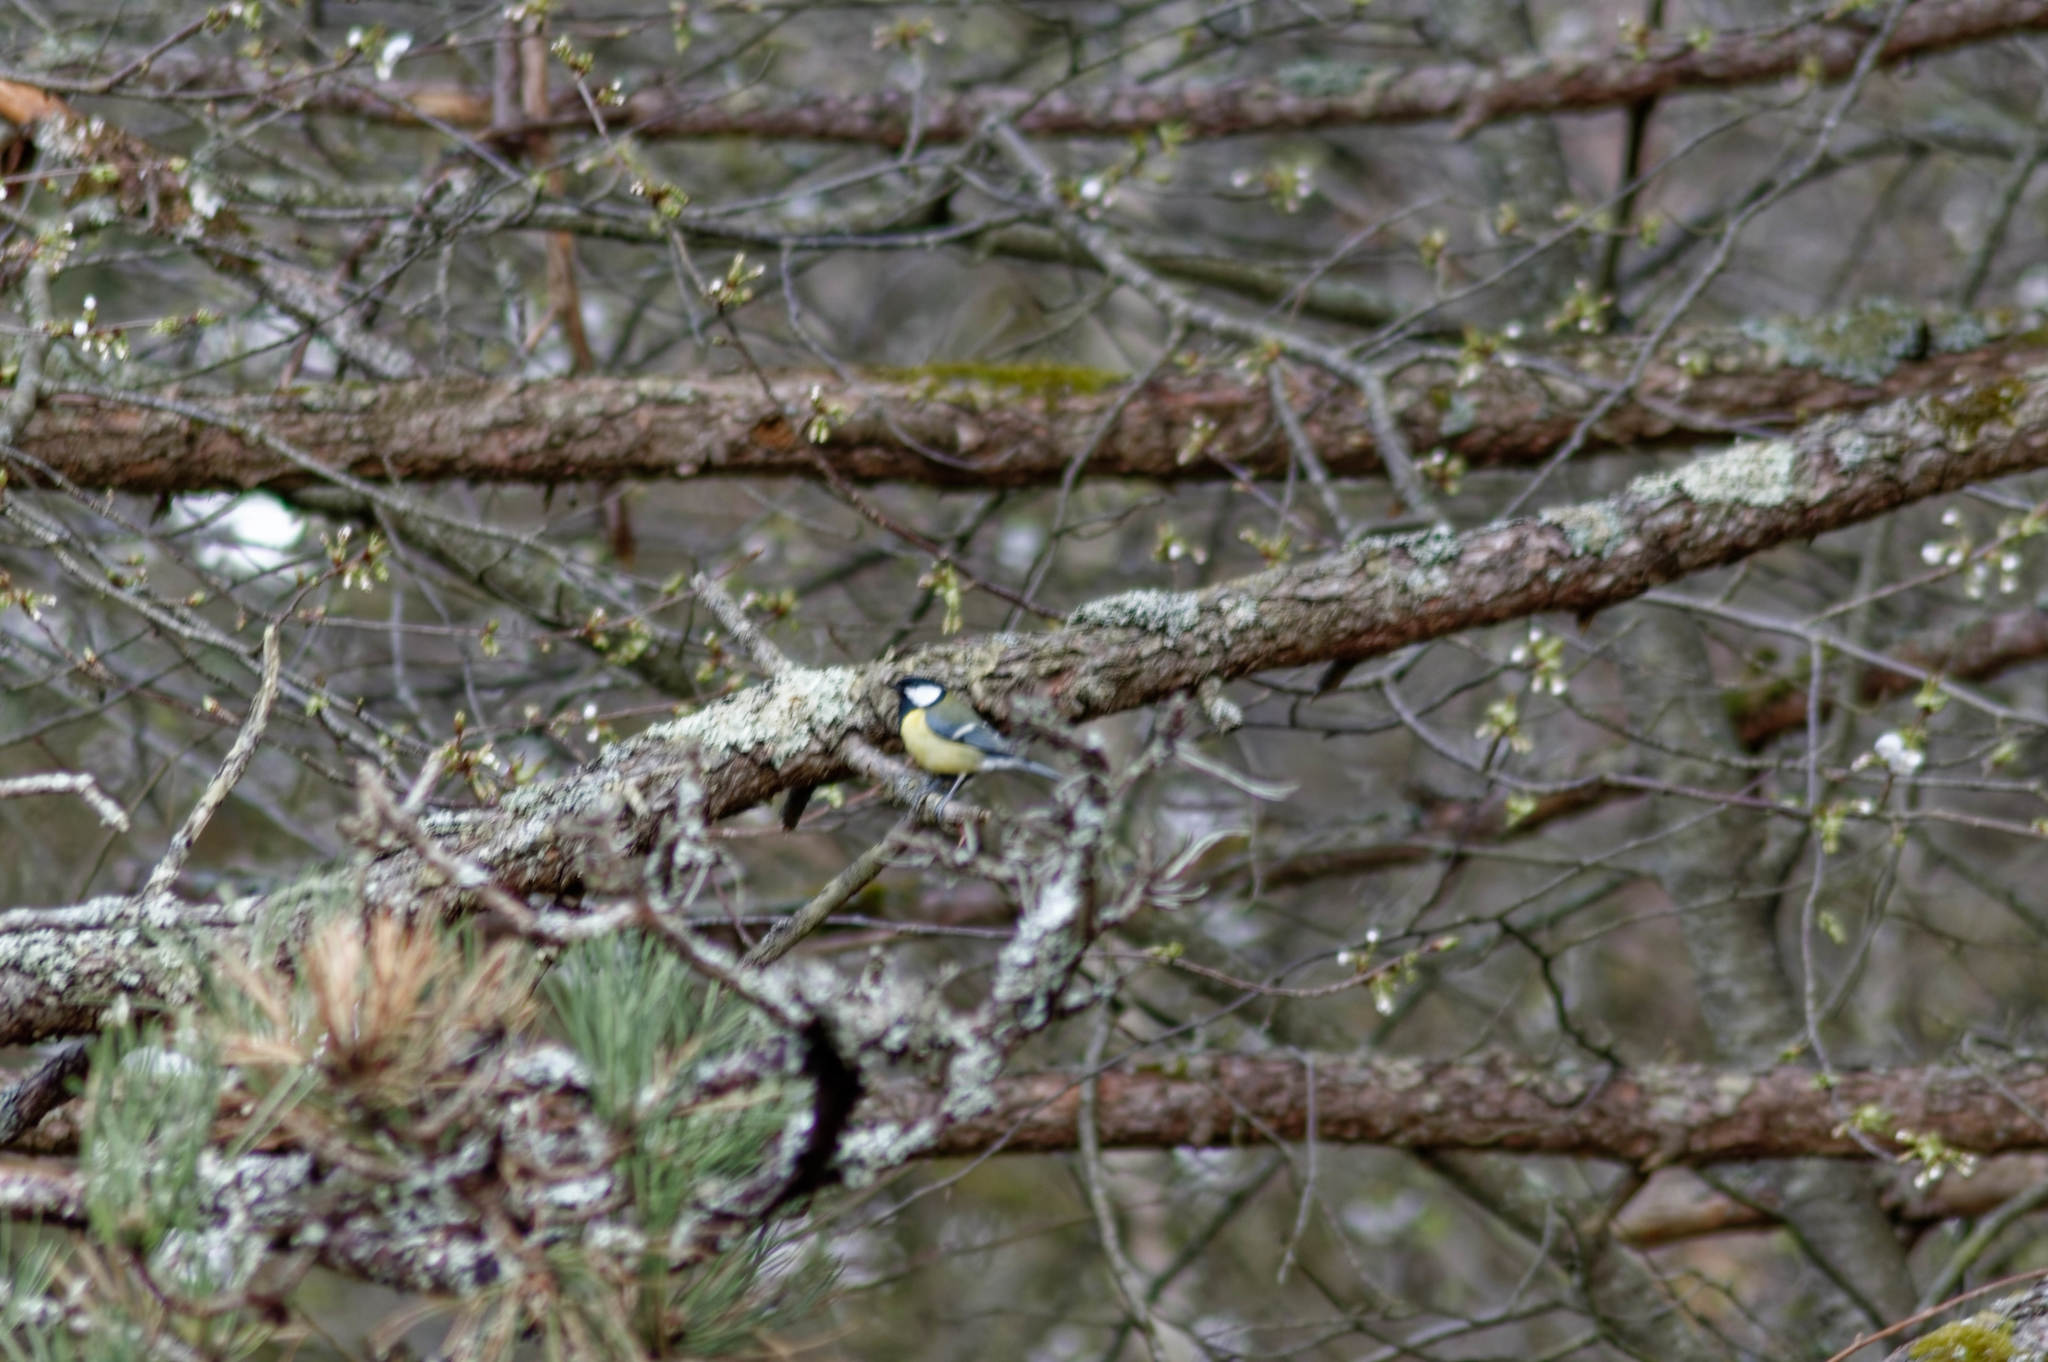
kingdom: Animalia
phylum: Chordata
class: Aves
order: Passeriformes
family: Paridae
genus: Parus
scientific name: Parus major
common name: Great tit
